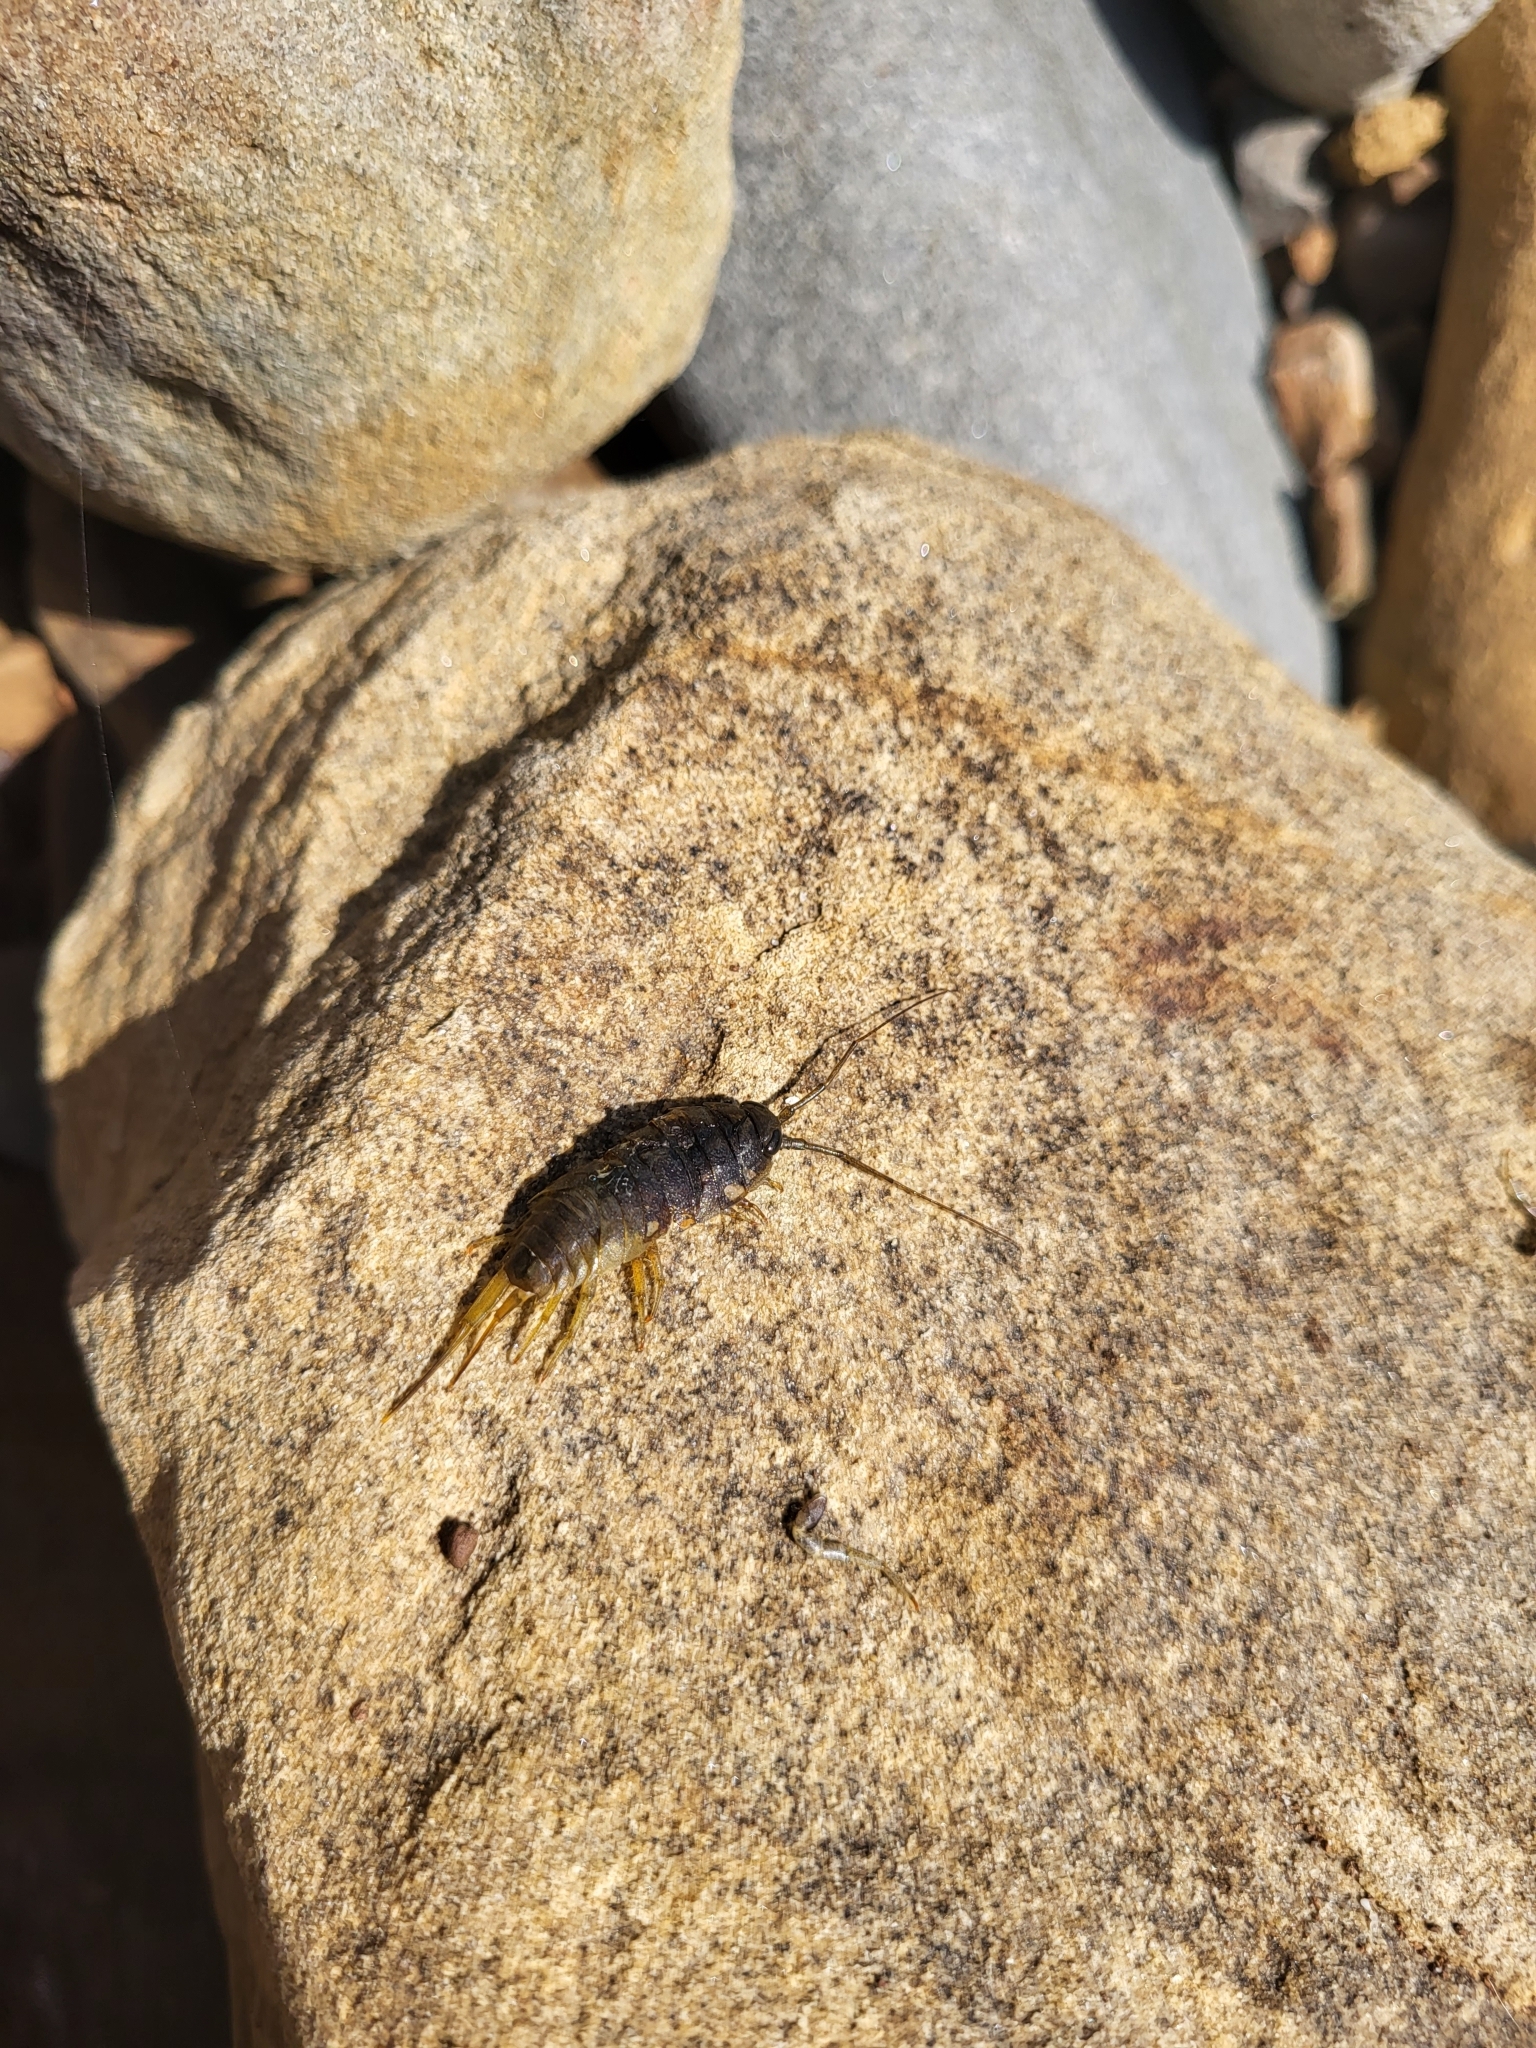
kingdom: Animalia
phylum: Arthropoda
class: Malacostraca
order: Isopoda
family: Ligiidae
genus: Ligia
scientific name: Ligia occidentalis
